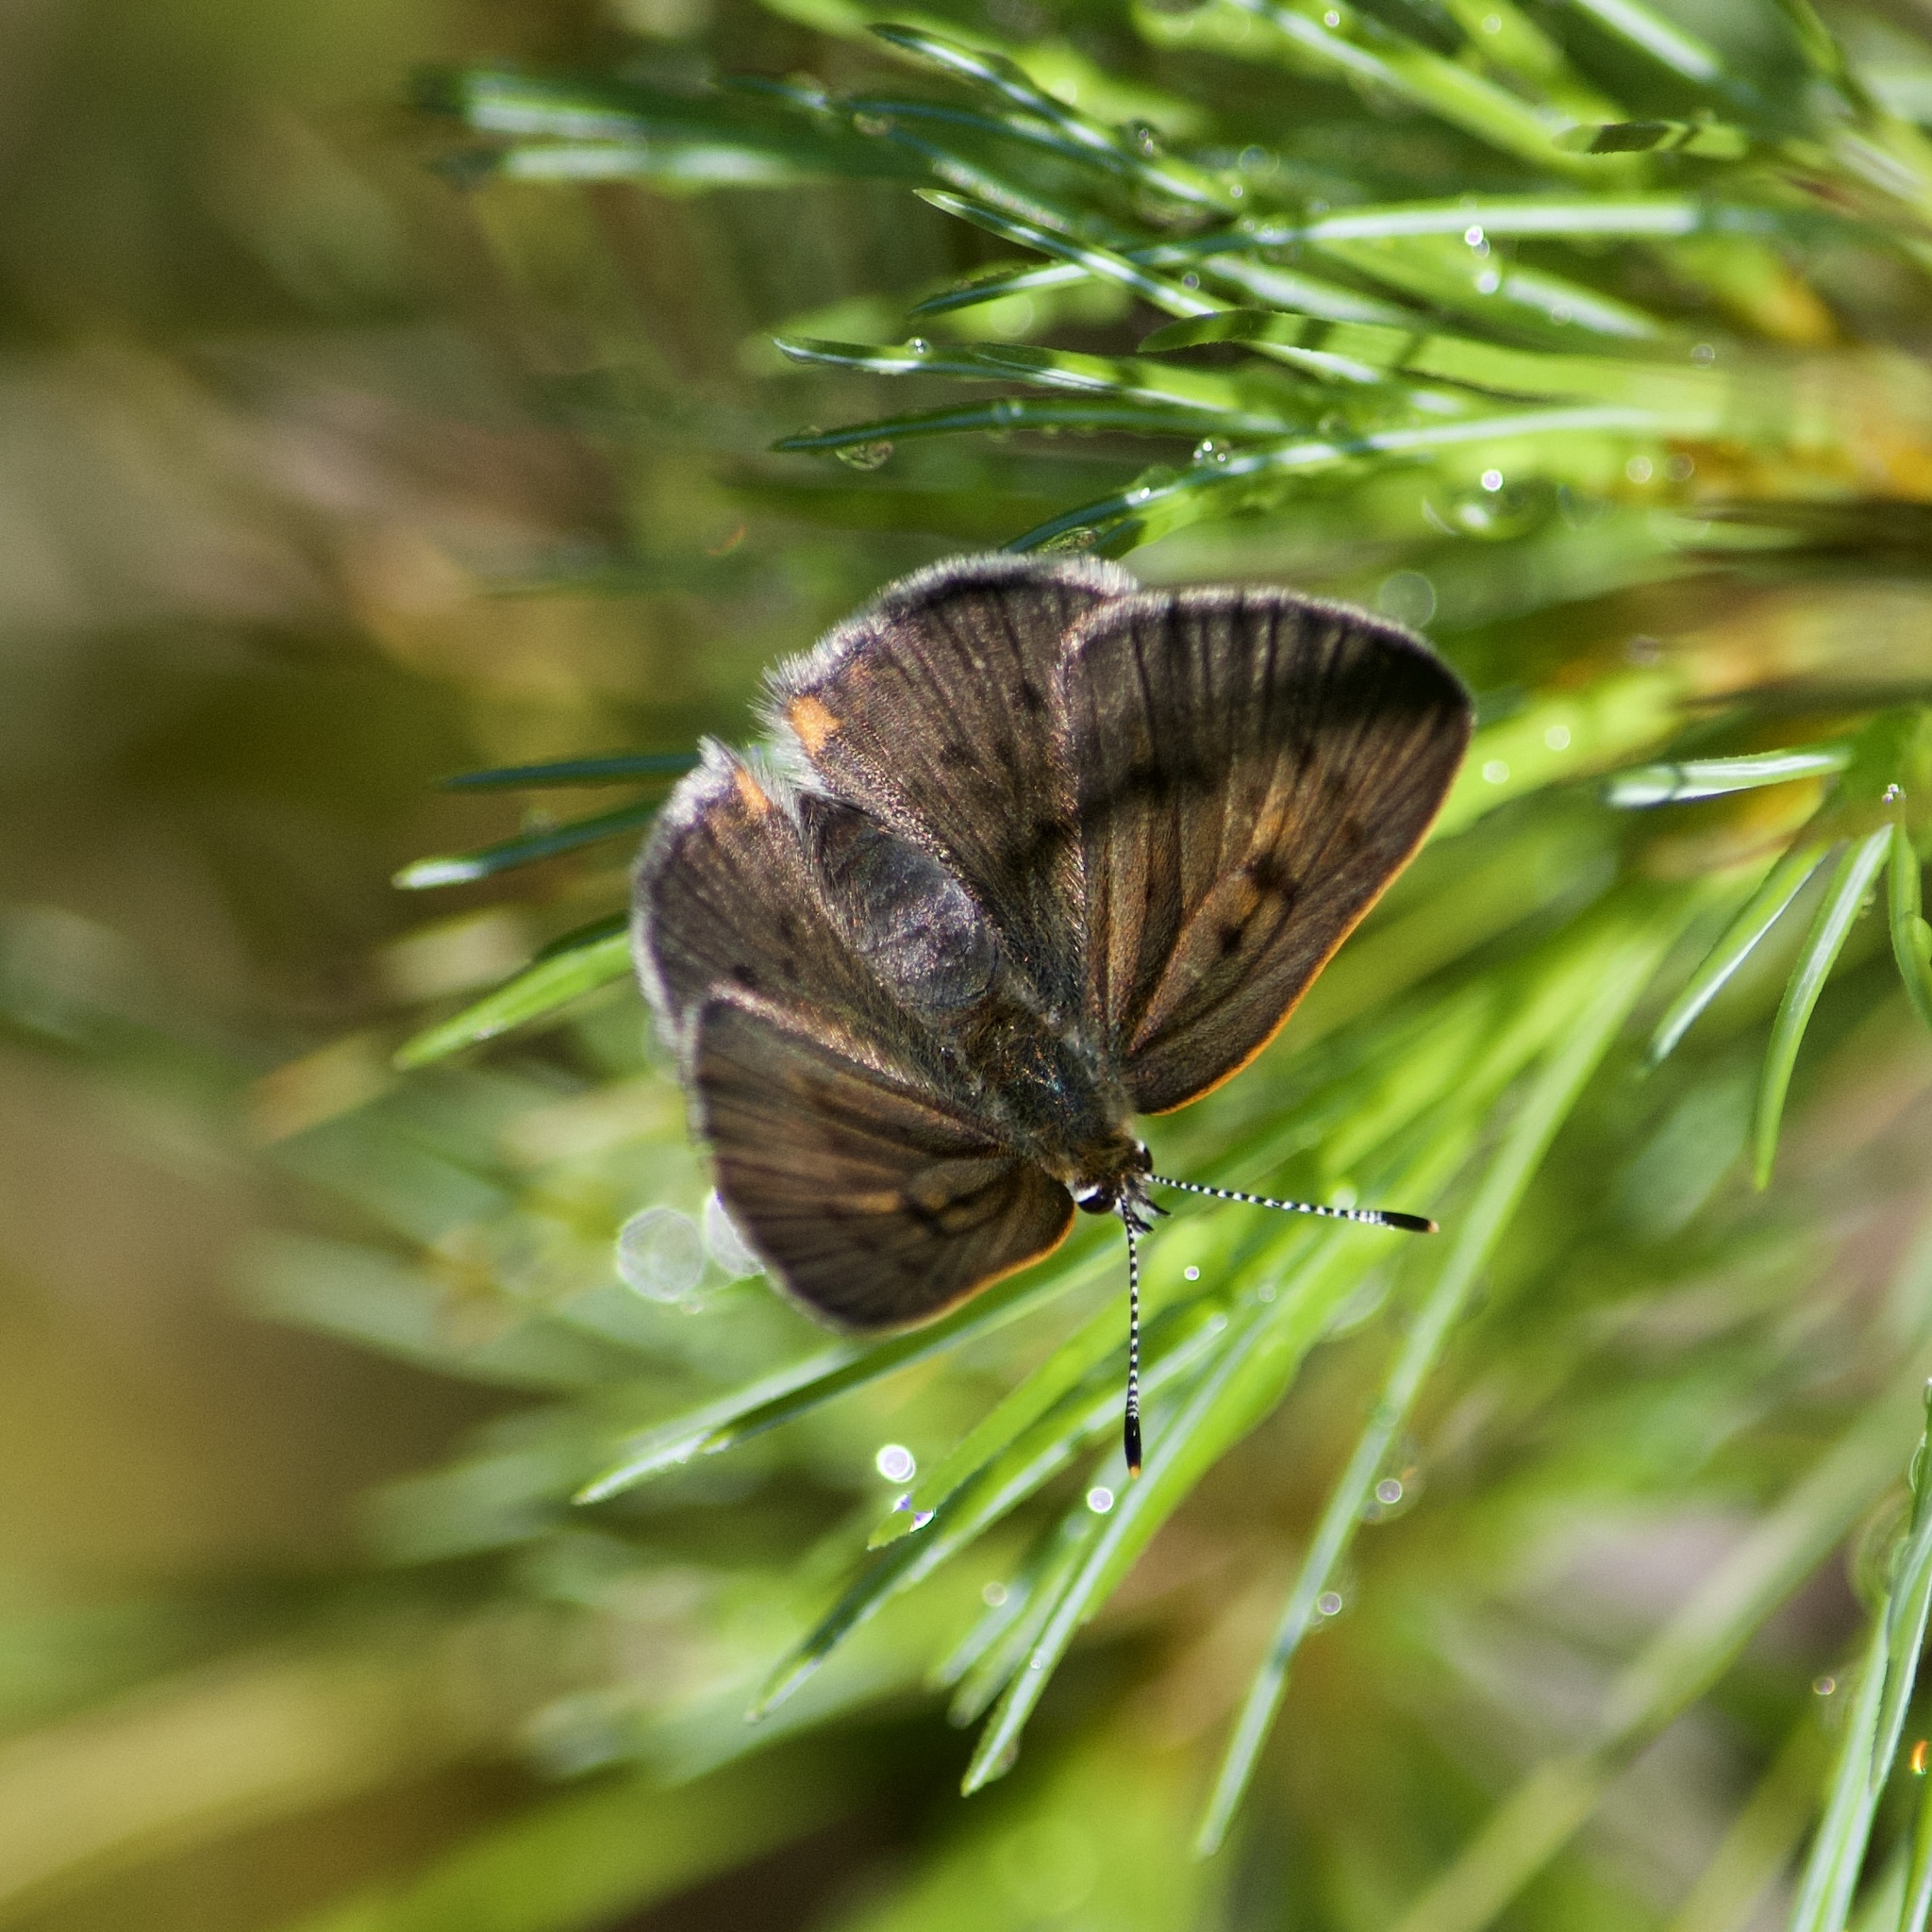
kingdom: Animalia
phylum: Arthropoda
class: Insecta
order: Lepidoptera
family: Lycaenidae
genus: Tharsalea
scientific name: Tharsalea epixanthe
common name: Bog copper
